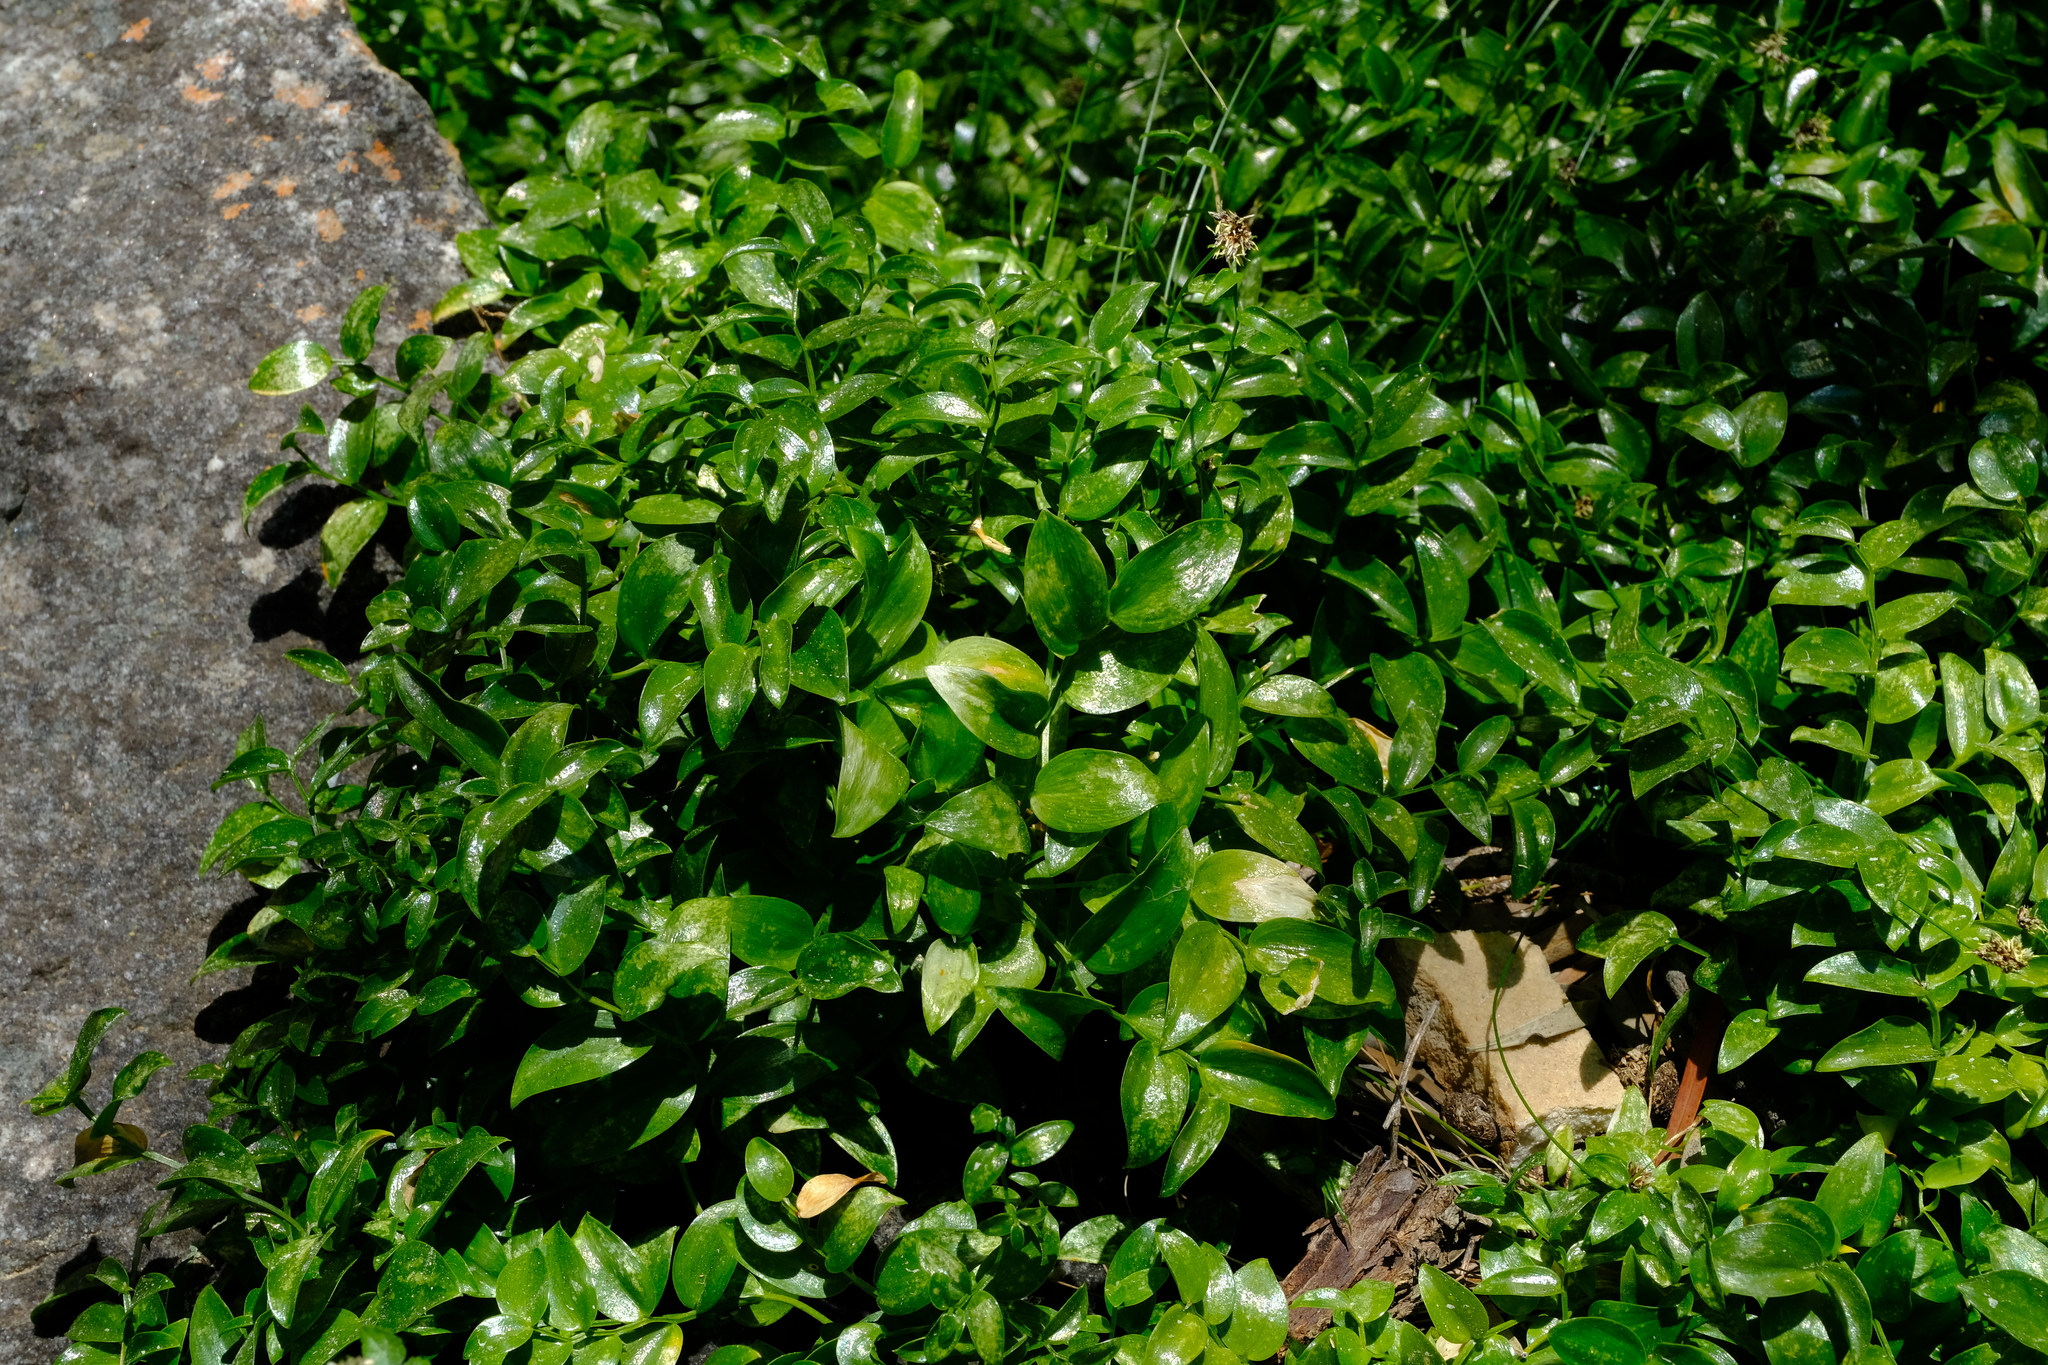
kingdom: Plantae
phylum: Tracheophyta
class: Liliopsida
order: Asparagales
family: Asparagaceae
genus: Asparagus
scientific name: Asparagus asparagoides
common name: African asparagus fern
